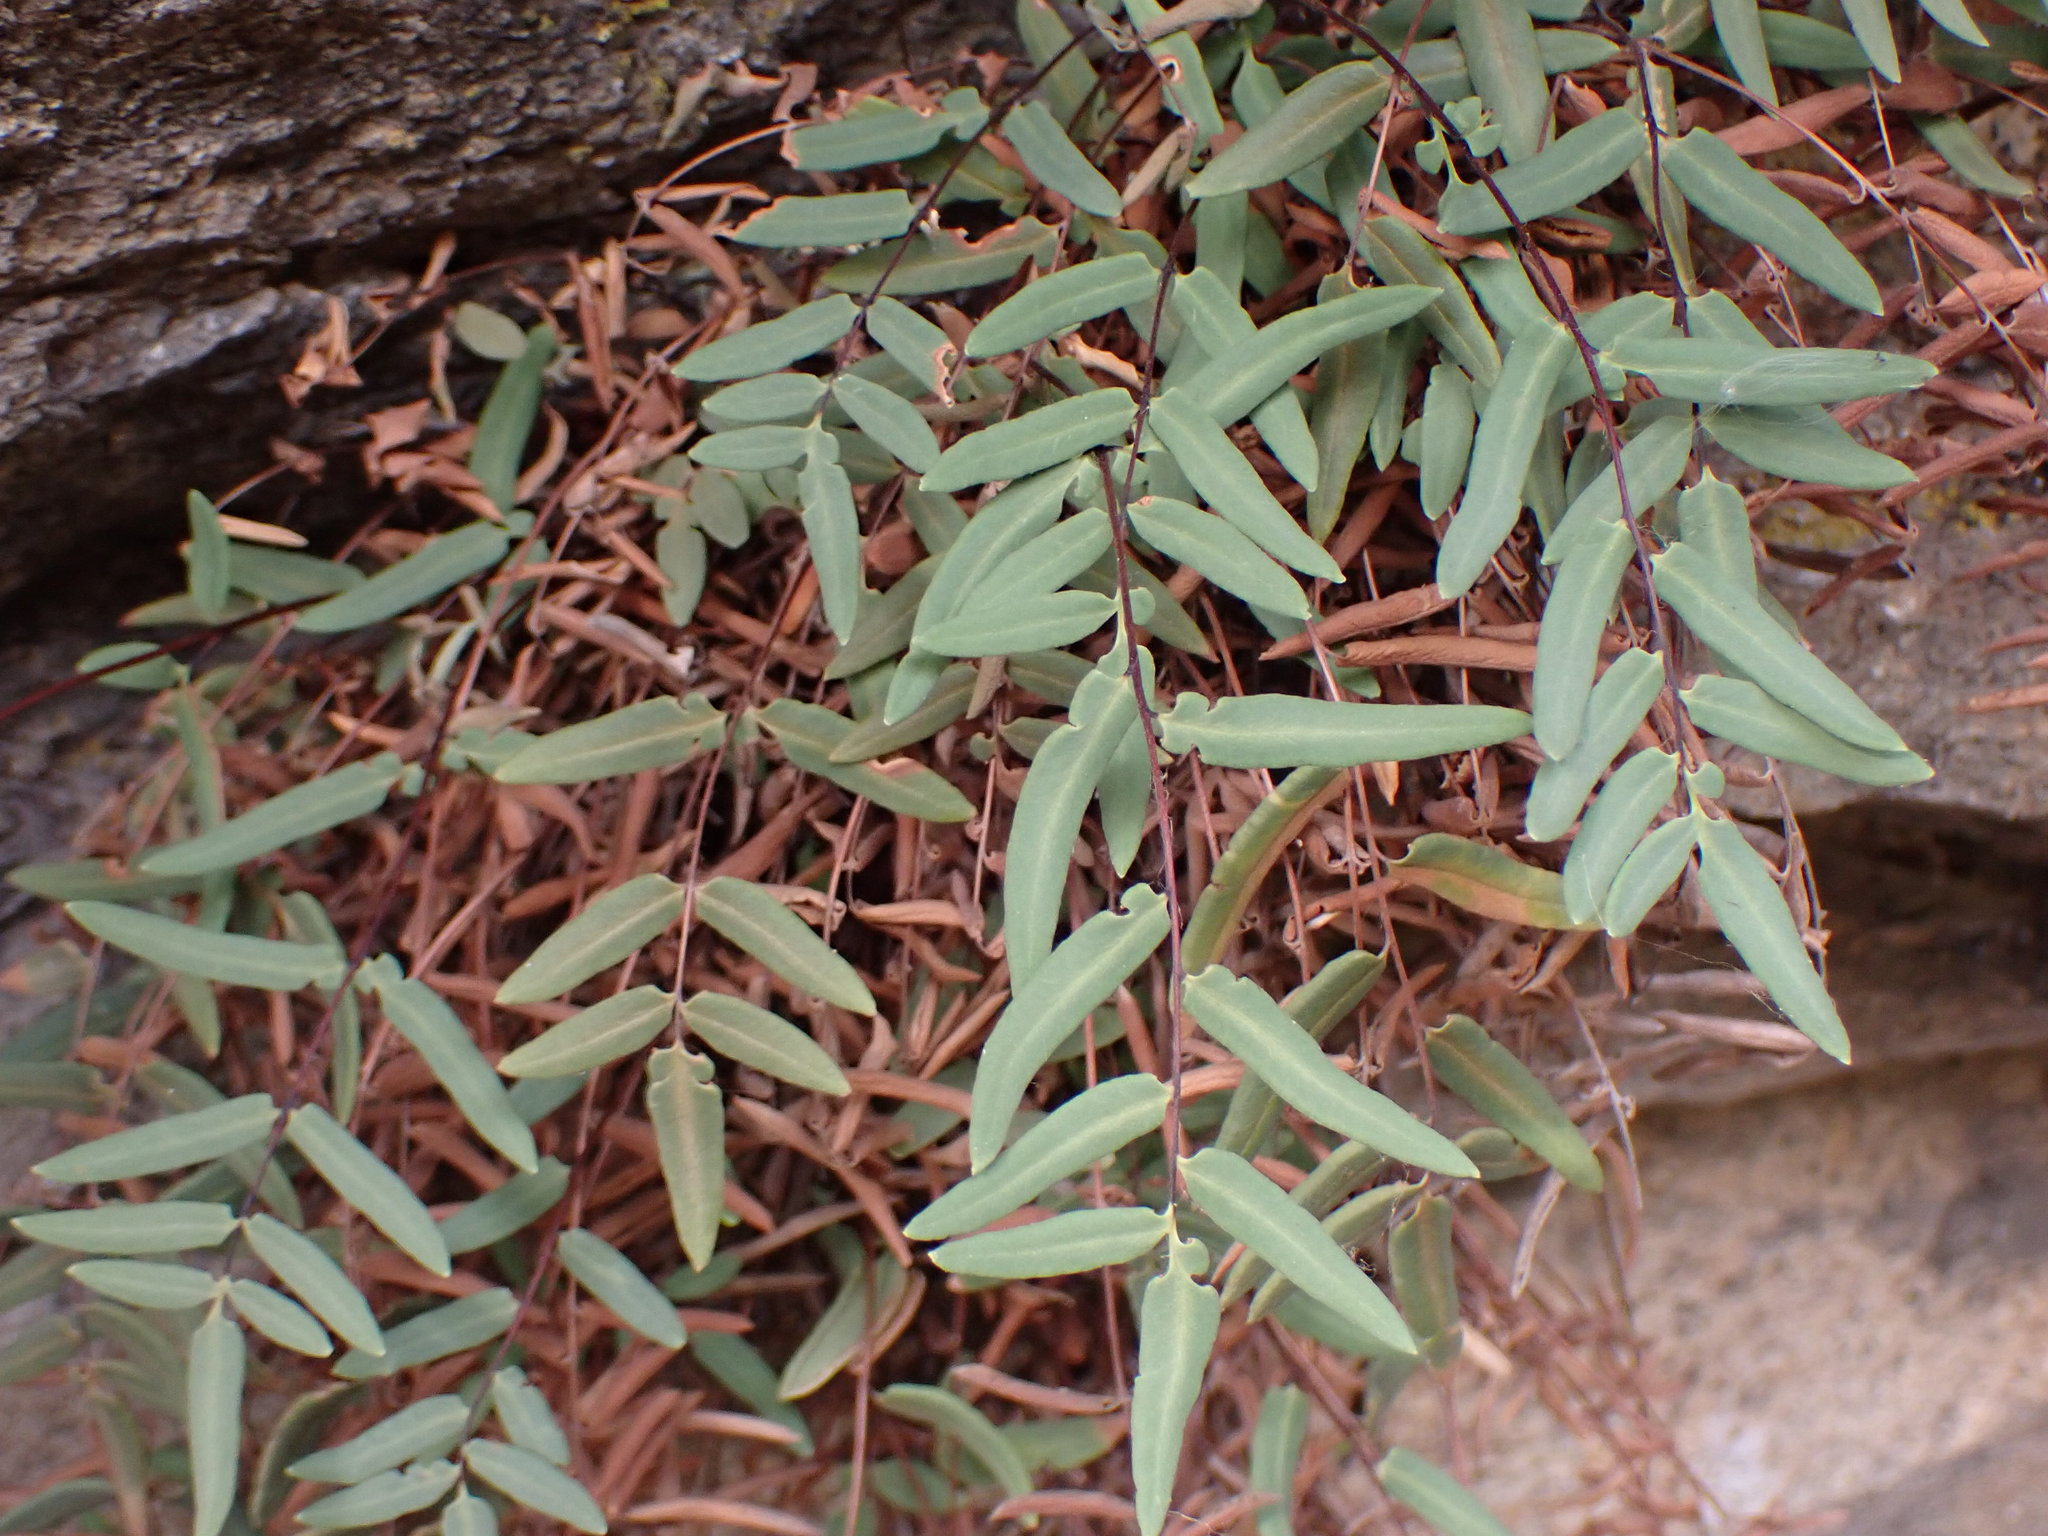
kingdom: Plantae
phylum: Tracheophyta
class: Polypodiopsida
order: Polypodiales
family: Pteridaceae
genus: Pellaea
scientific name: Pellaea glabella
